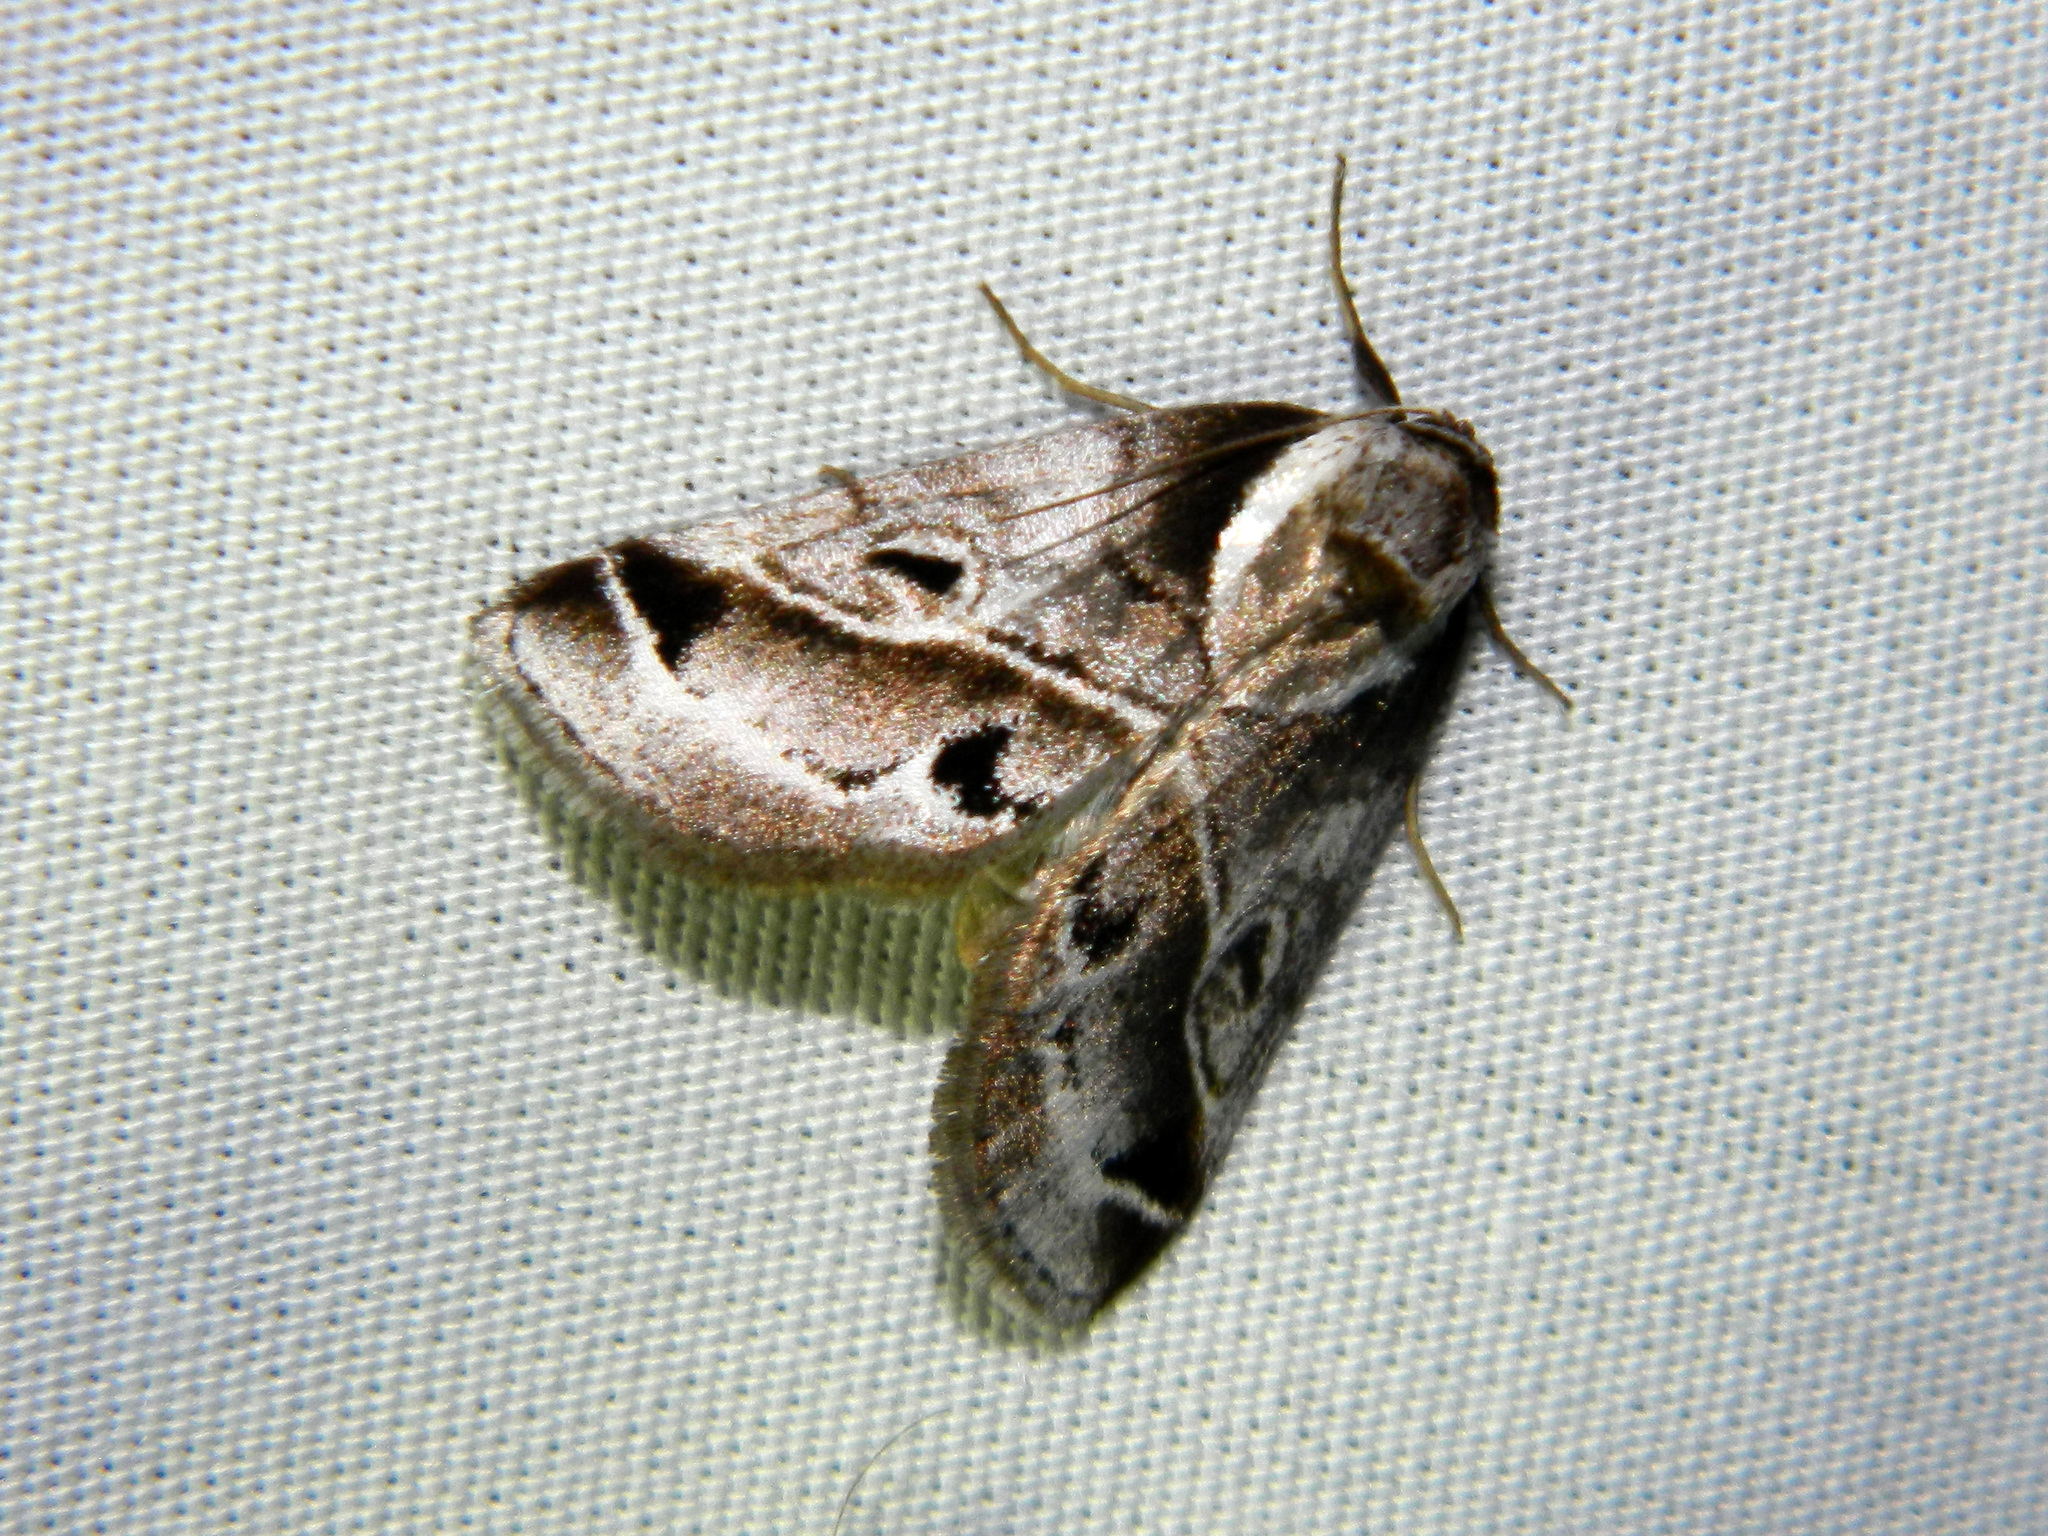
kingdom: Animalia
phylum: Arthropoda
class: Insecta
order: Lepidoptera
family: Nolidae
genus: Baileya
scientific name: Baileya doubledayi
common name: Doubleday's baileya moth
